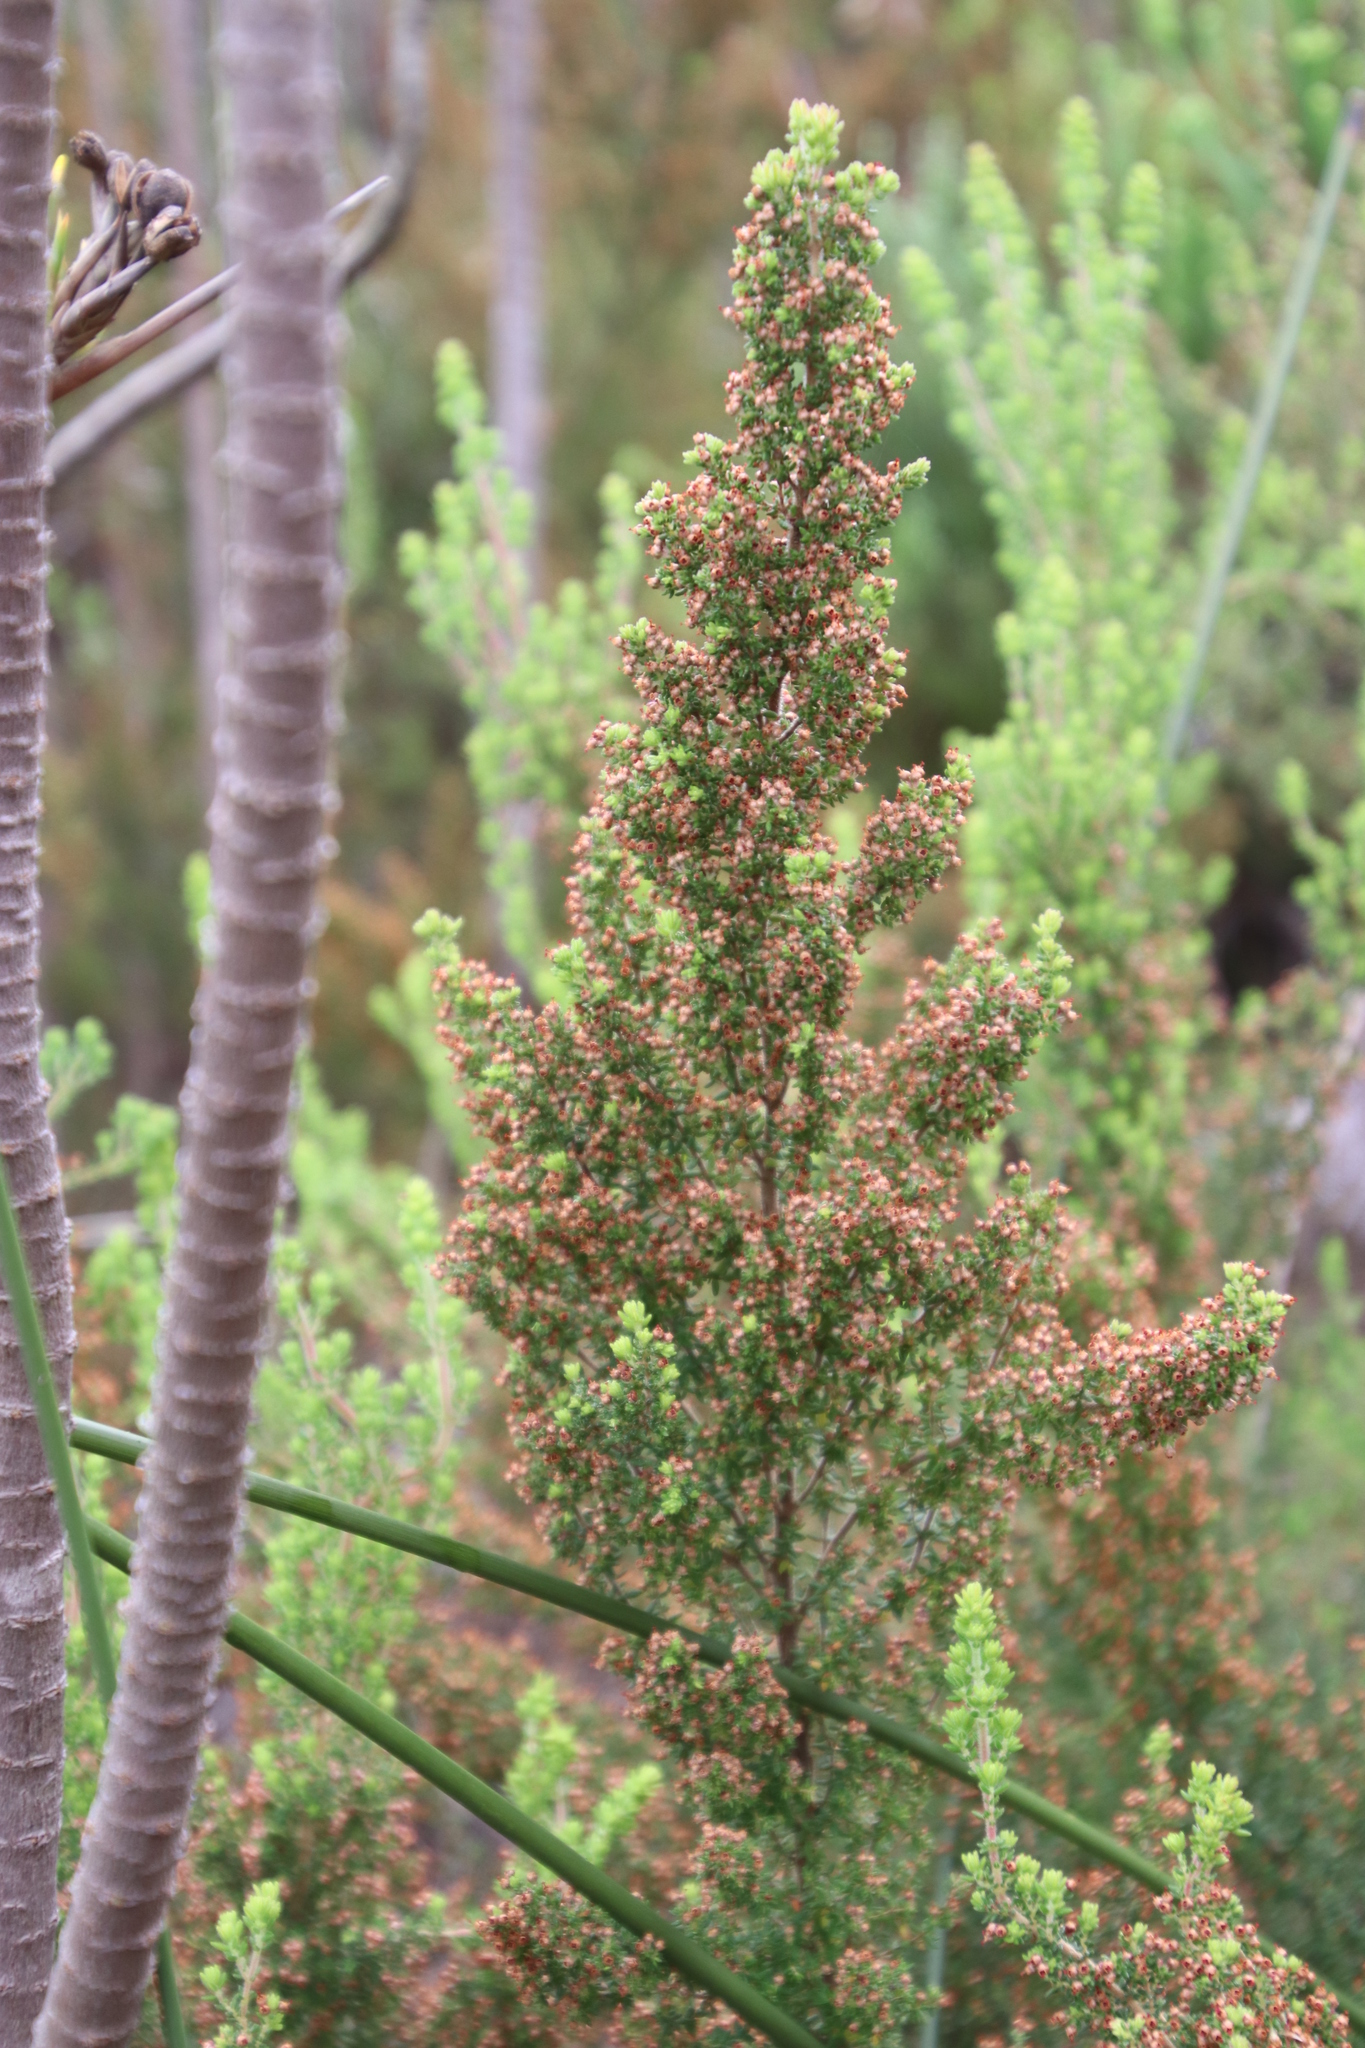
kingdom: Plantae
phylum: Tracheophyta
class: Magnoliopsida
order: Ericales
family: Ericaceae
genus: Erica
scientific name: Erica hispidula
